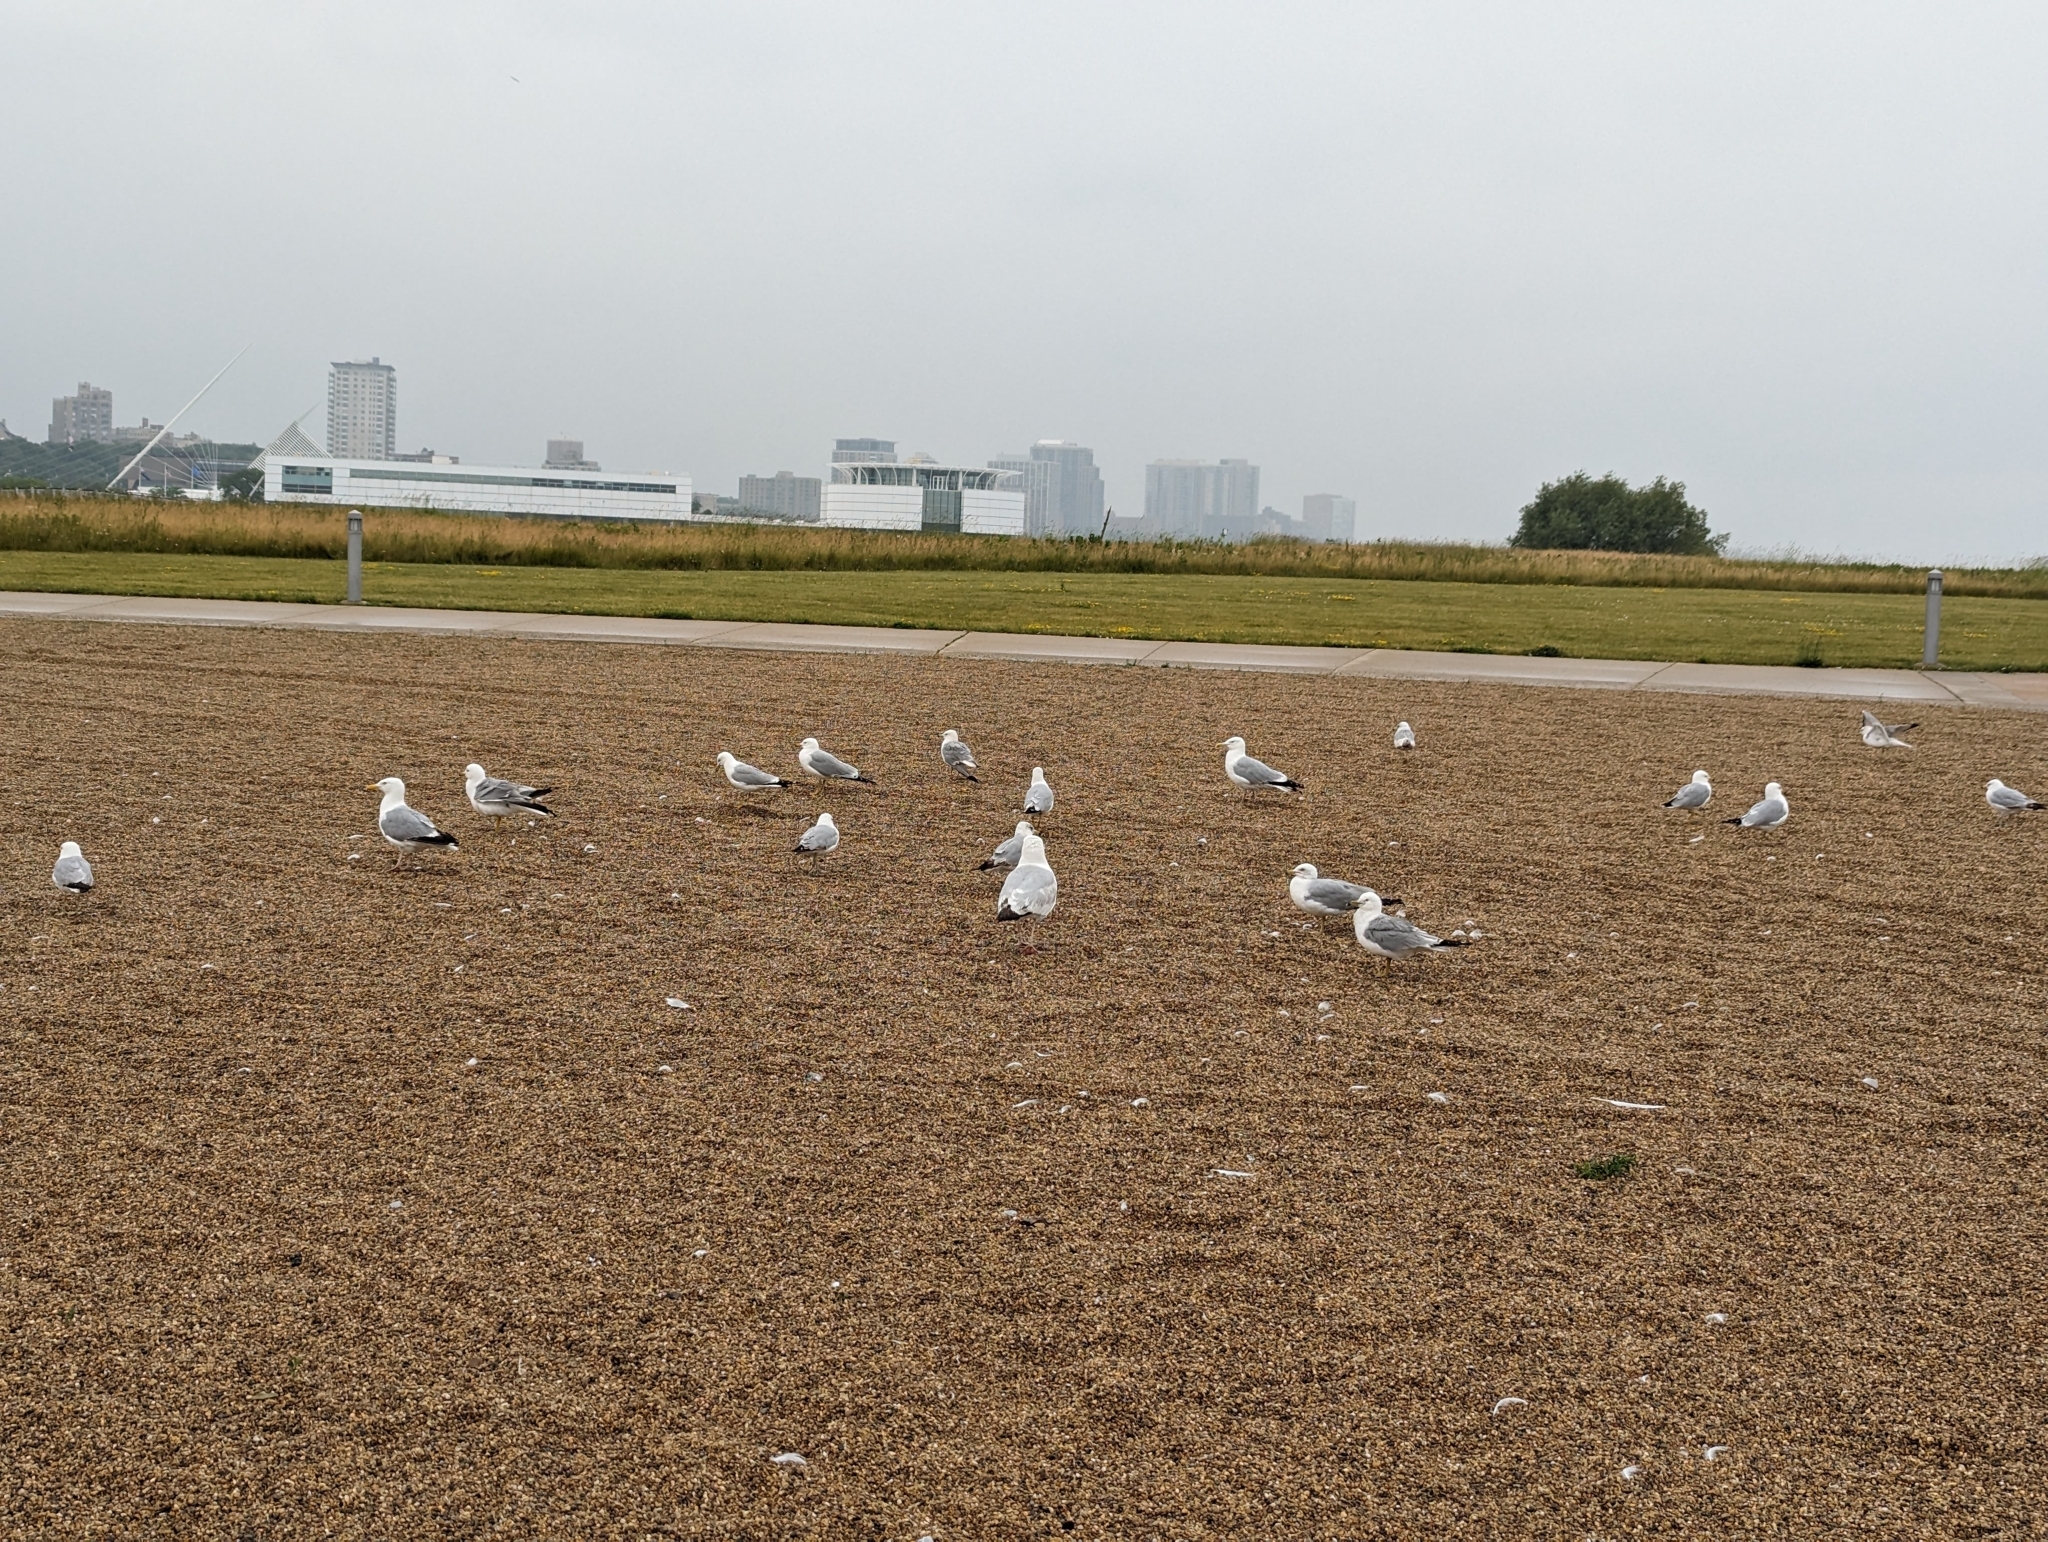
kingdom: Animalia
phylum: Chordata
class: Aves
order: Charadriiformes
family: Laridae
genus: Larus
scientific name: Larus delawarensis
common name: Ring-billed gull
